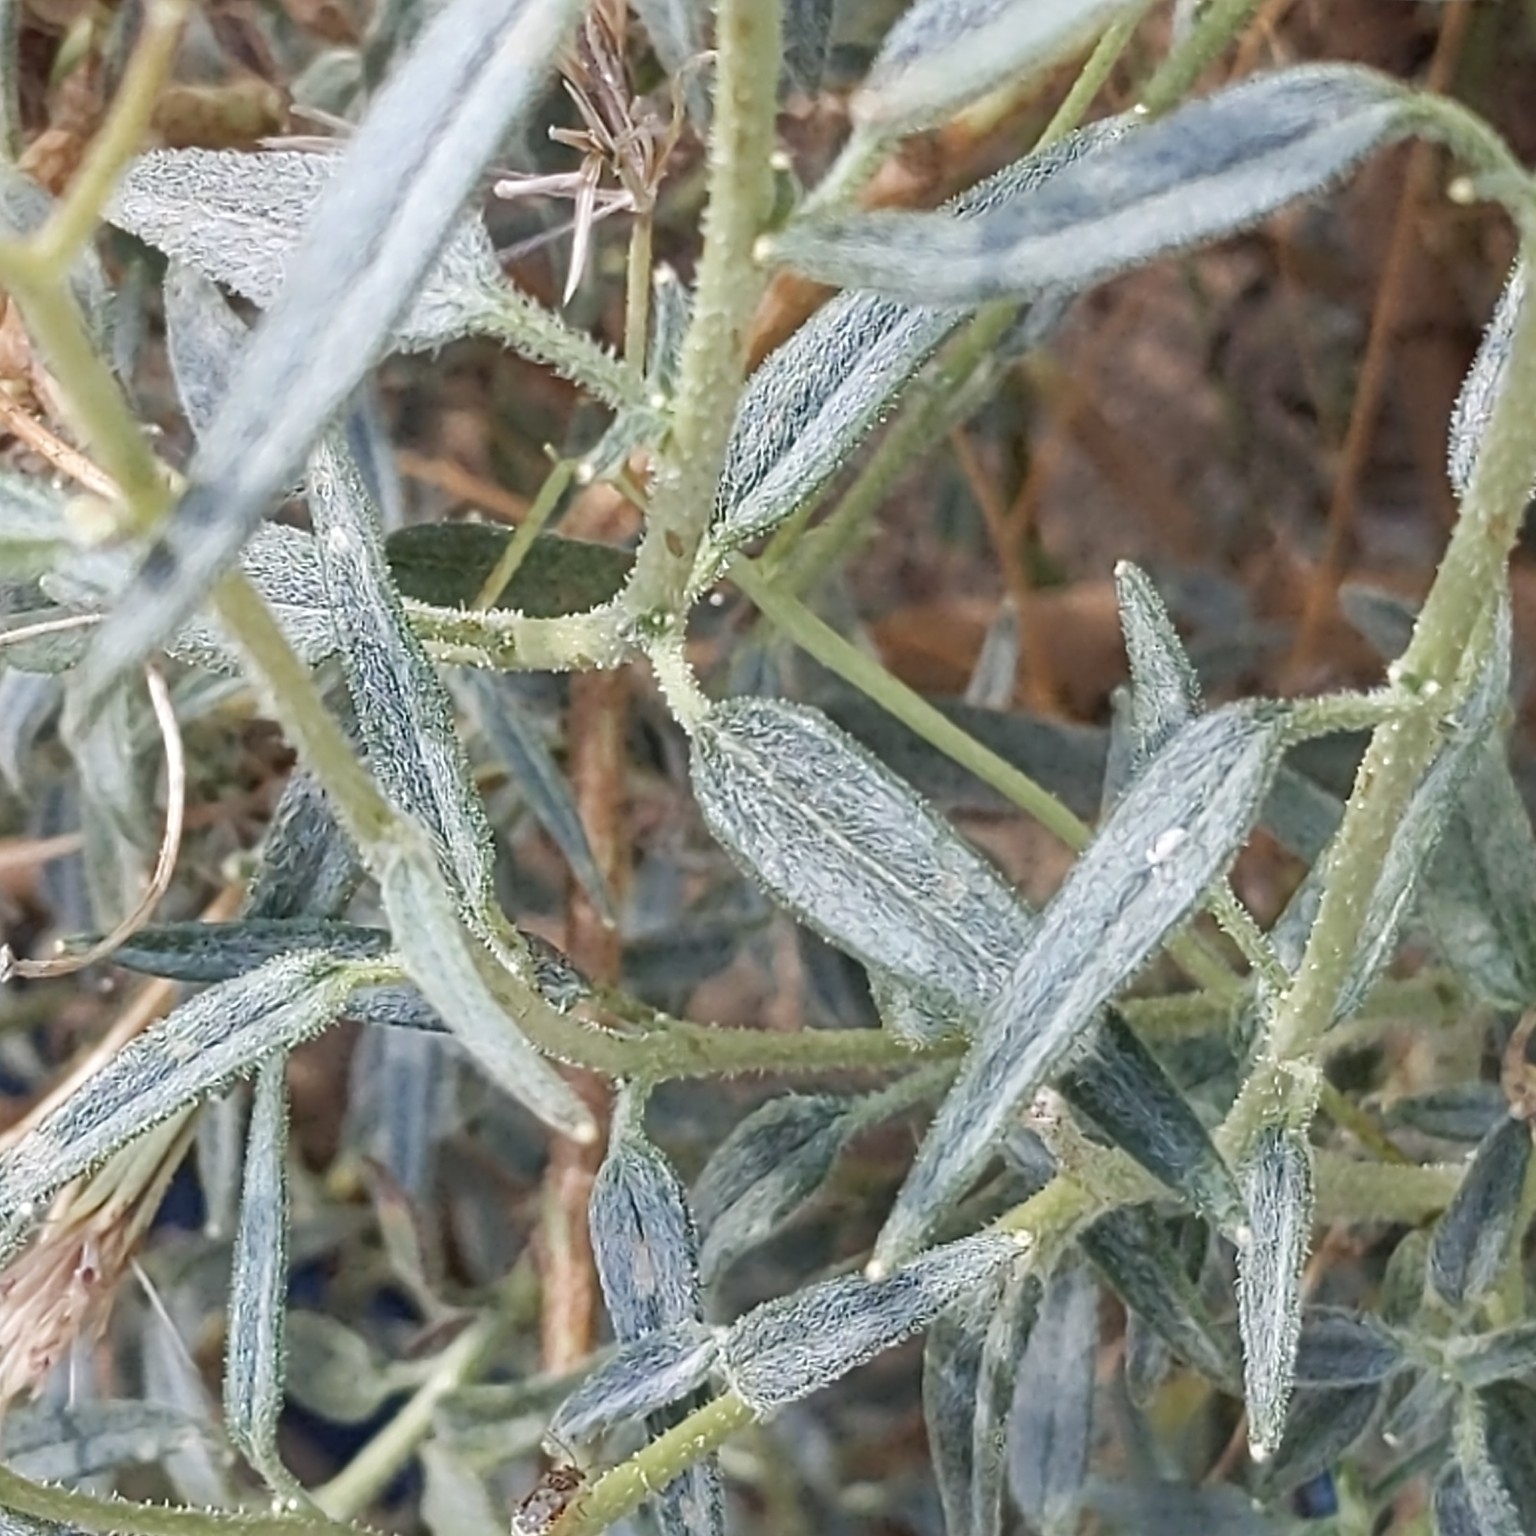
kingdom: Plantae
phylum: Tracheophyta
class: Magnoliopsida
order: Asterales
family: Asteraceae
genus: Palafoxia
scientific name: Palafoxia arida
